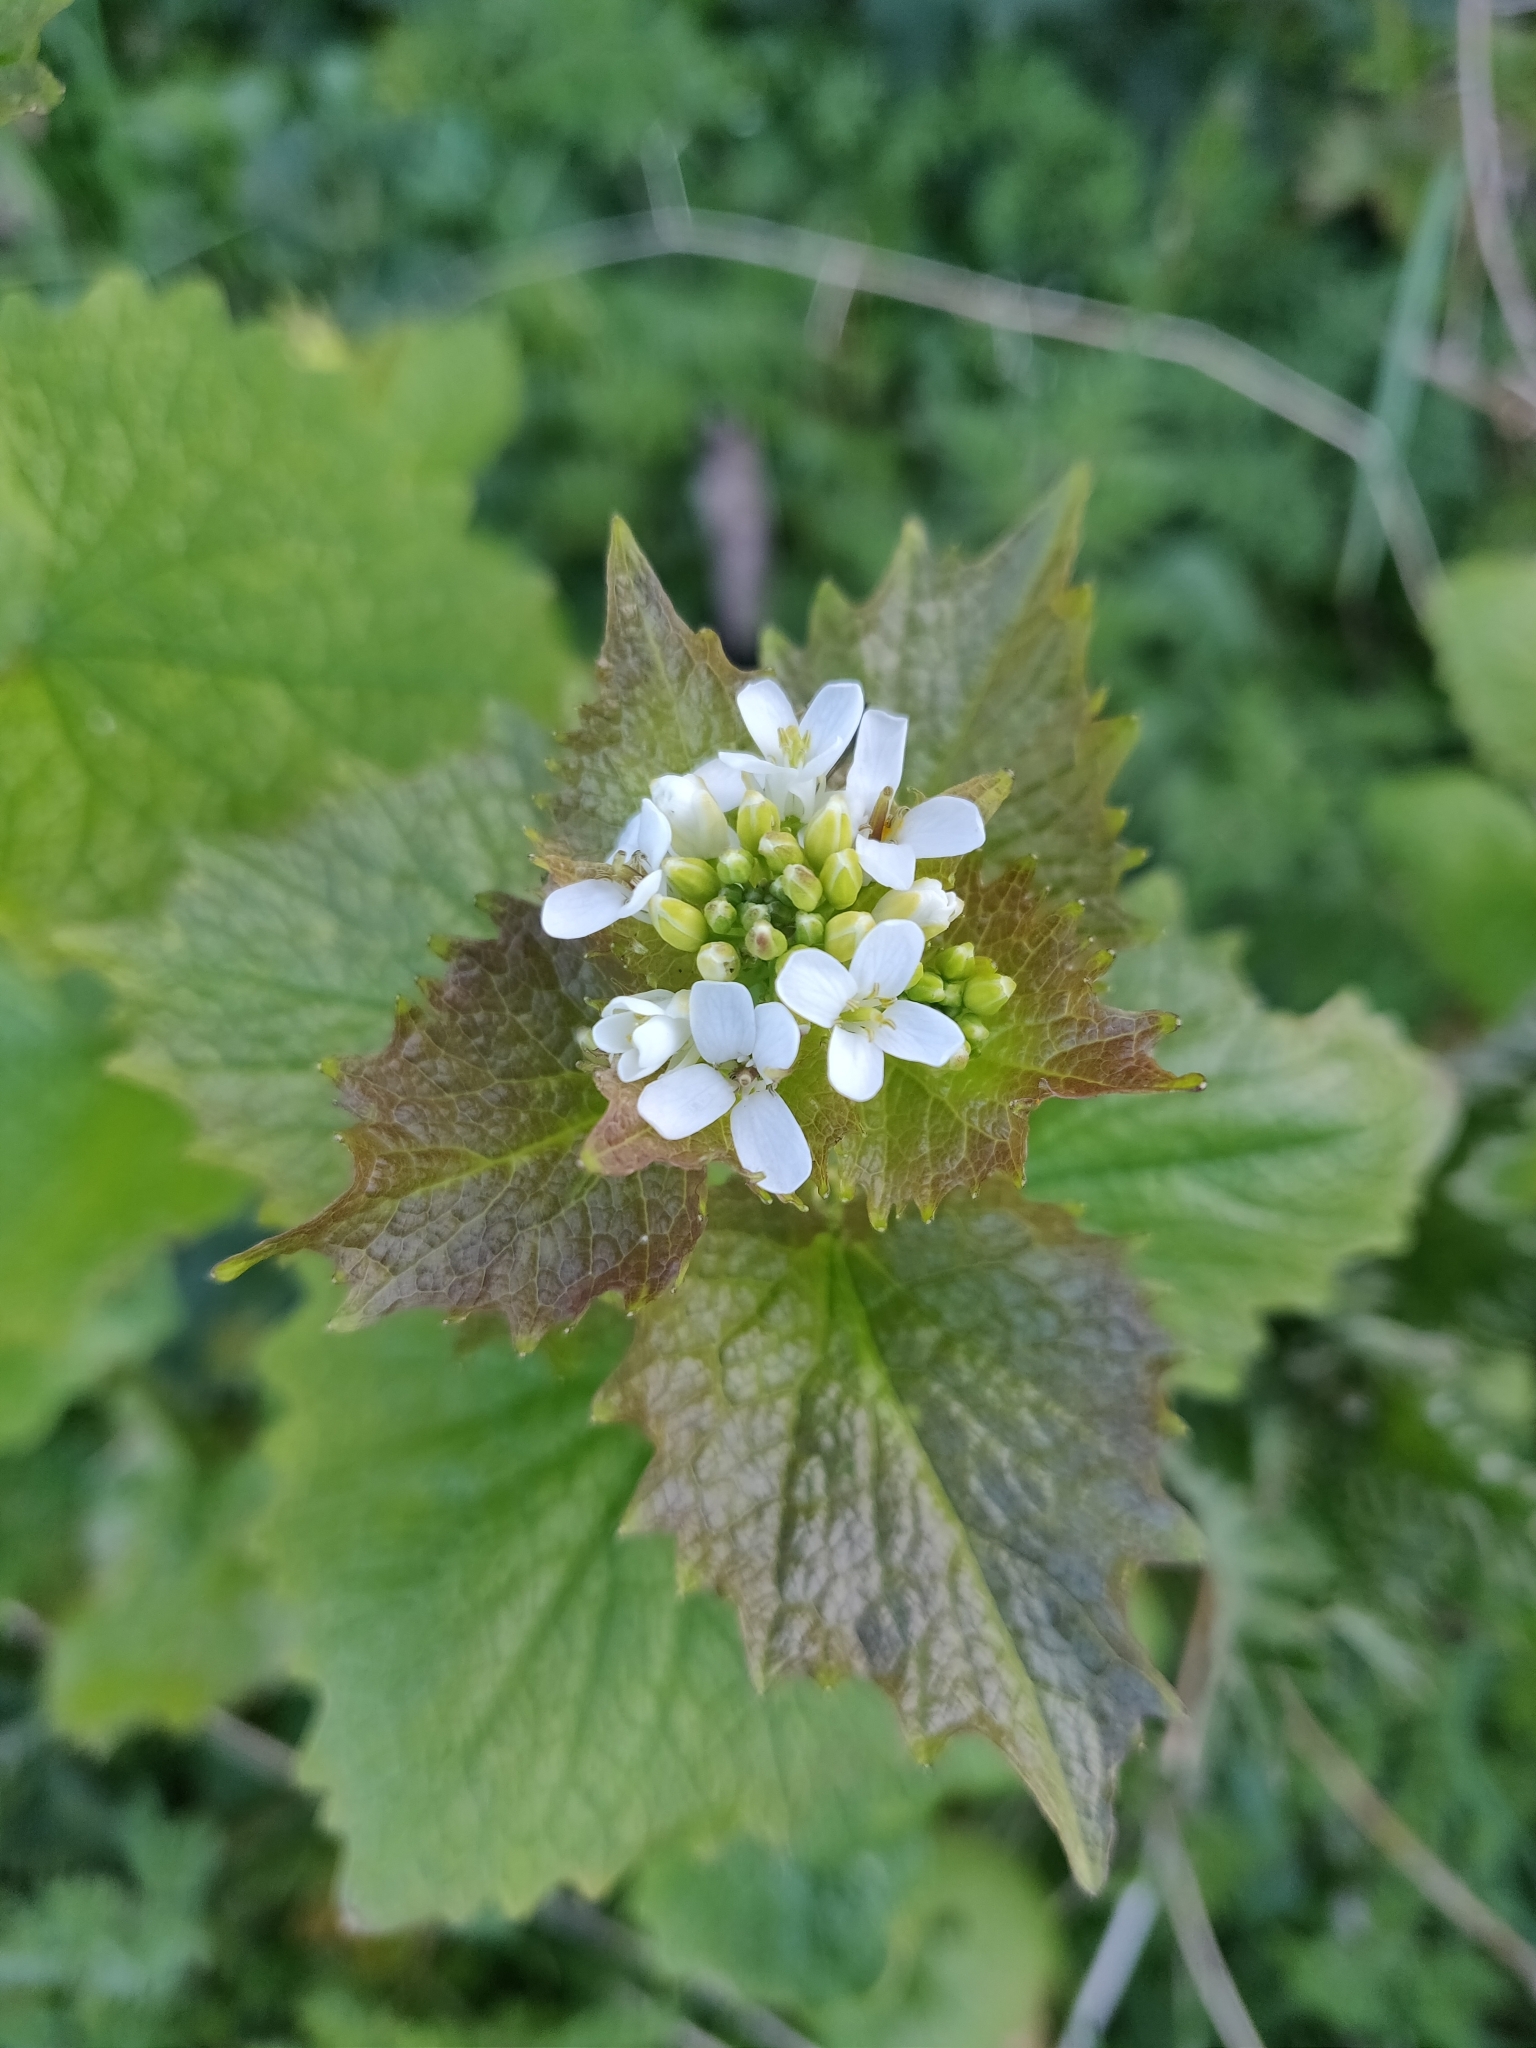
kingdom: Plantae
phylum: Tracheophyta
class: Magnoliopsida
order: Brassicales
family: Brassicaceae
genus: Alliaria
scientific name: Alliaria petiolata
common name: Garlic mustard
